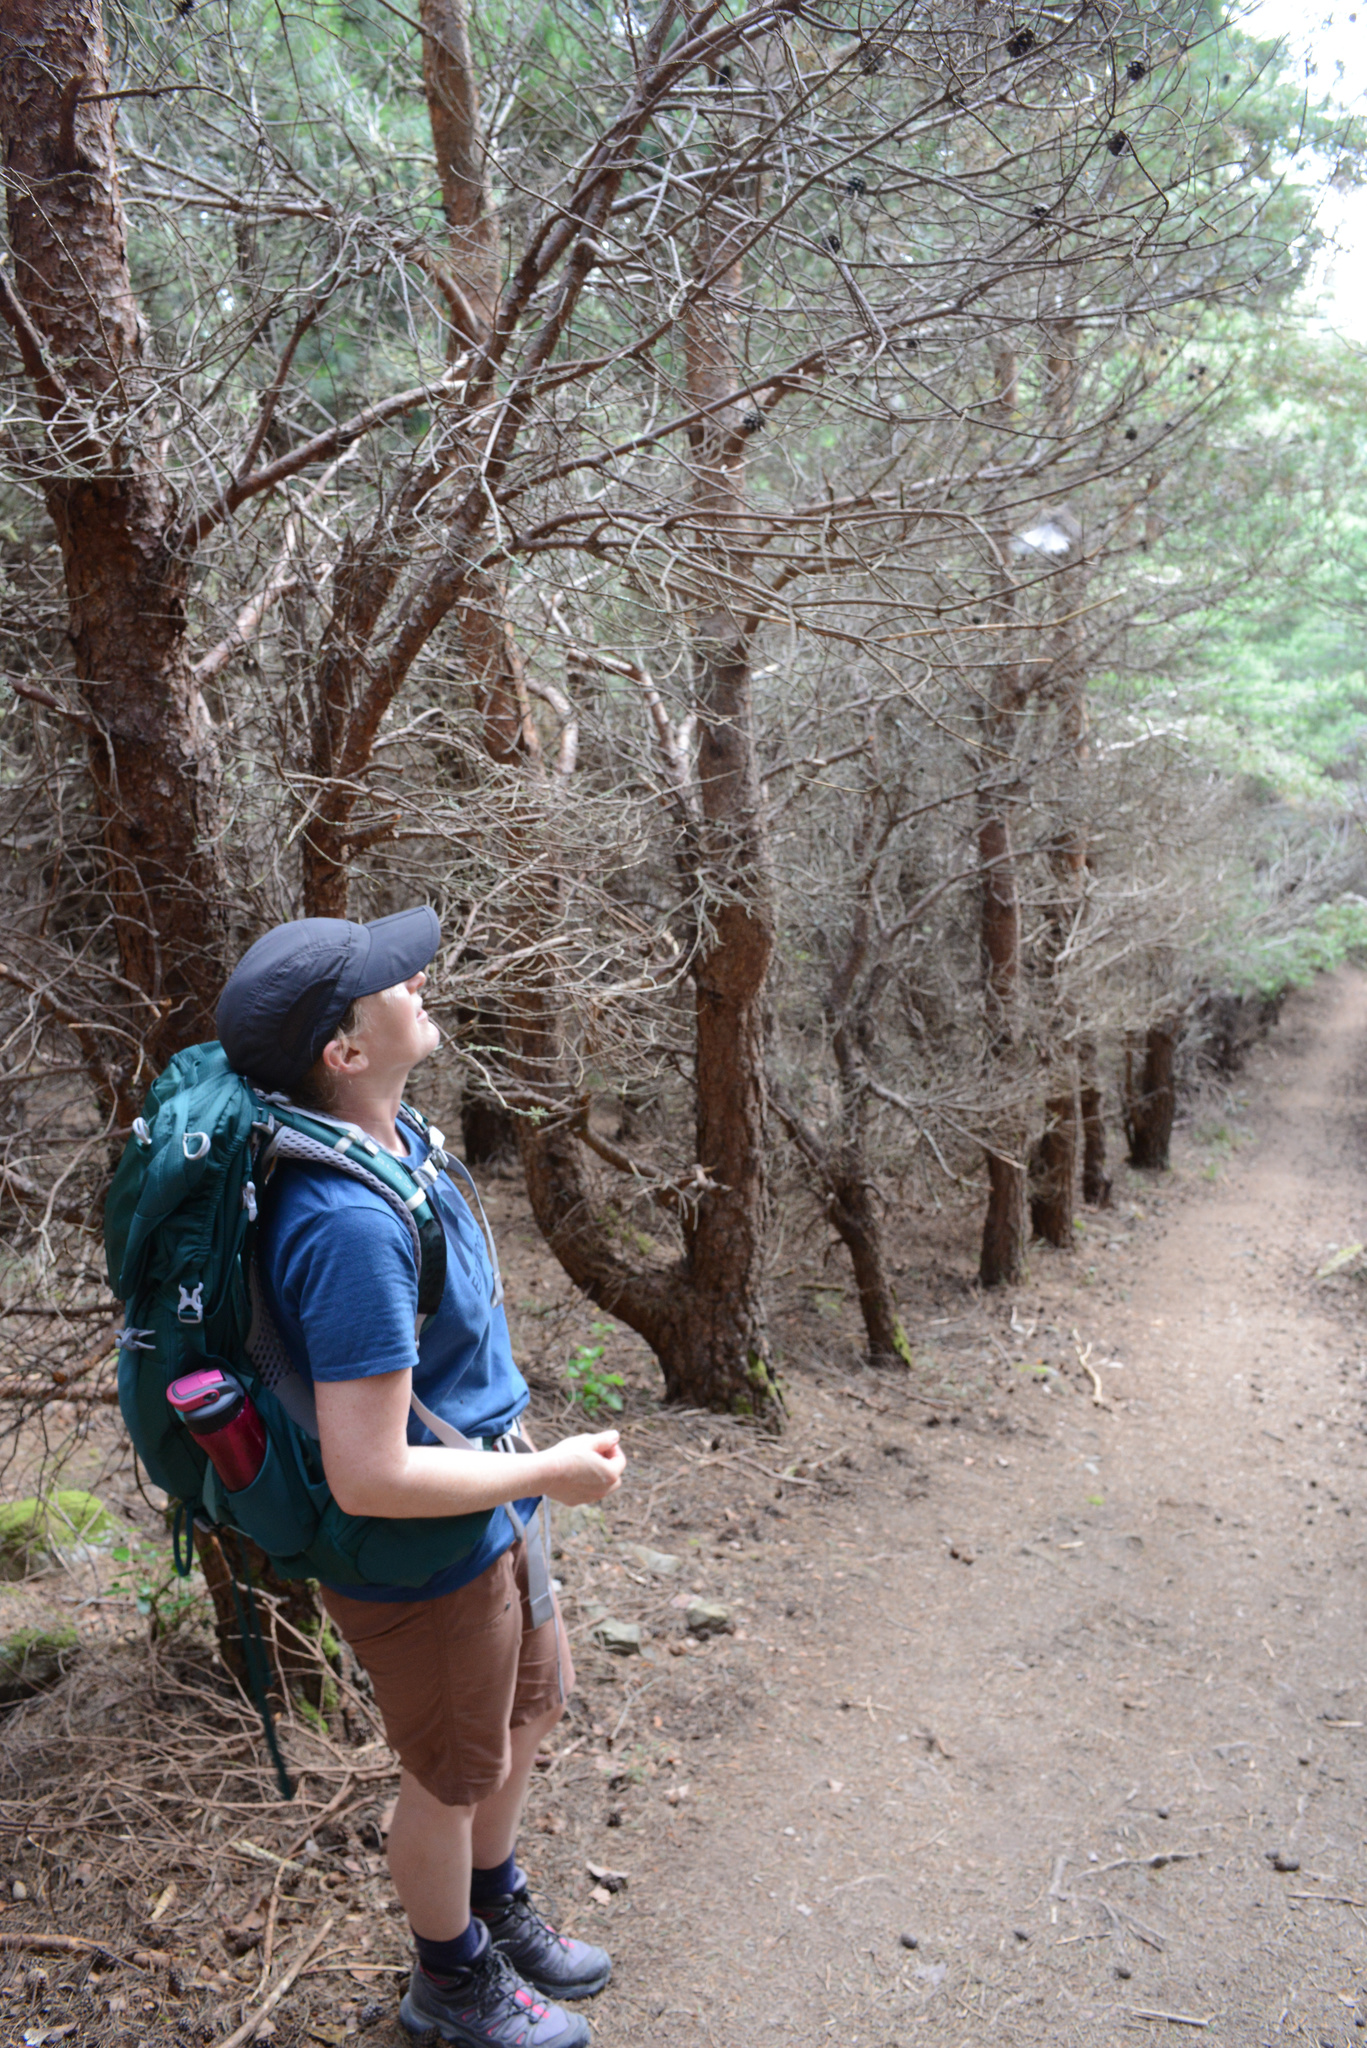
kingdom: Animalia
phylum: Chordata
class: Aves
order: Passeriformes
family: Rhipiduridae
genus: Rhipidura
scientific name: Rhipidura fuliginosa
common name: New zealand fantail
